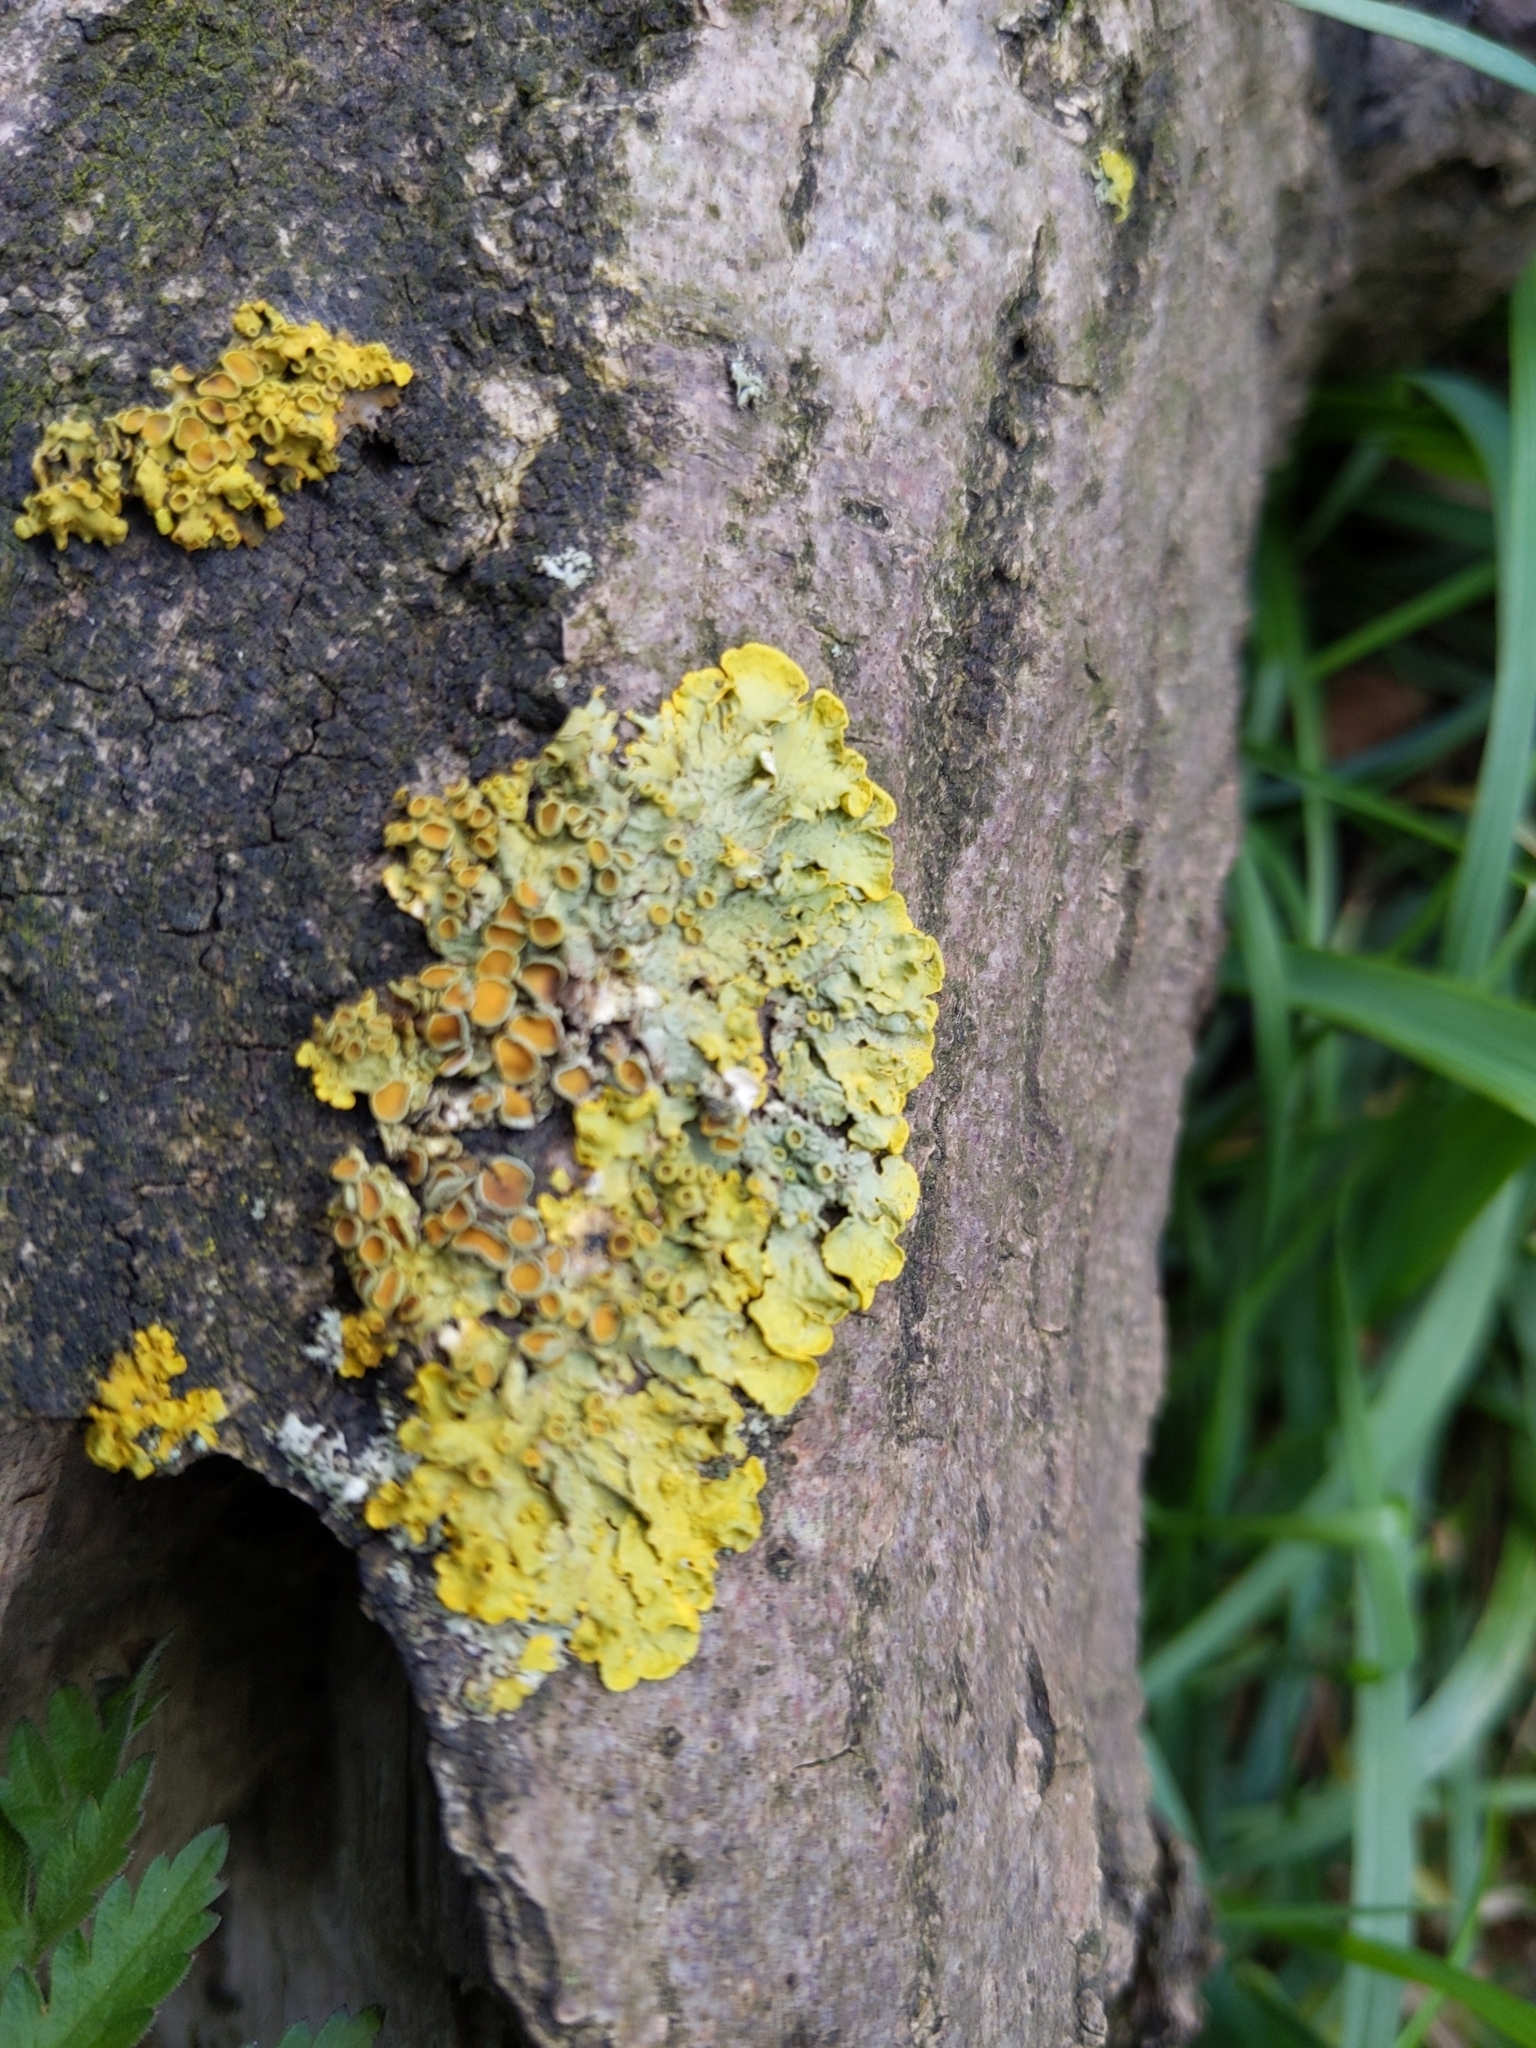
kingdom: Fungi
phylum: Ascomycota
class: Lecanoromycetes
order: Teloschistales
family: Teloschistaceae
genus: Xanthoria
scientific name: Xanthoria parietina
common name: Common orange lichen
